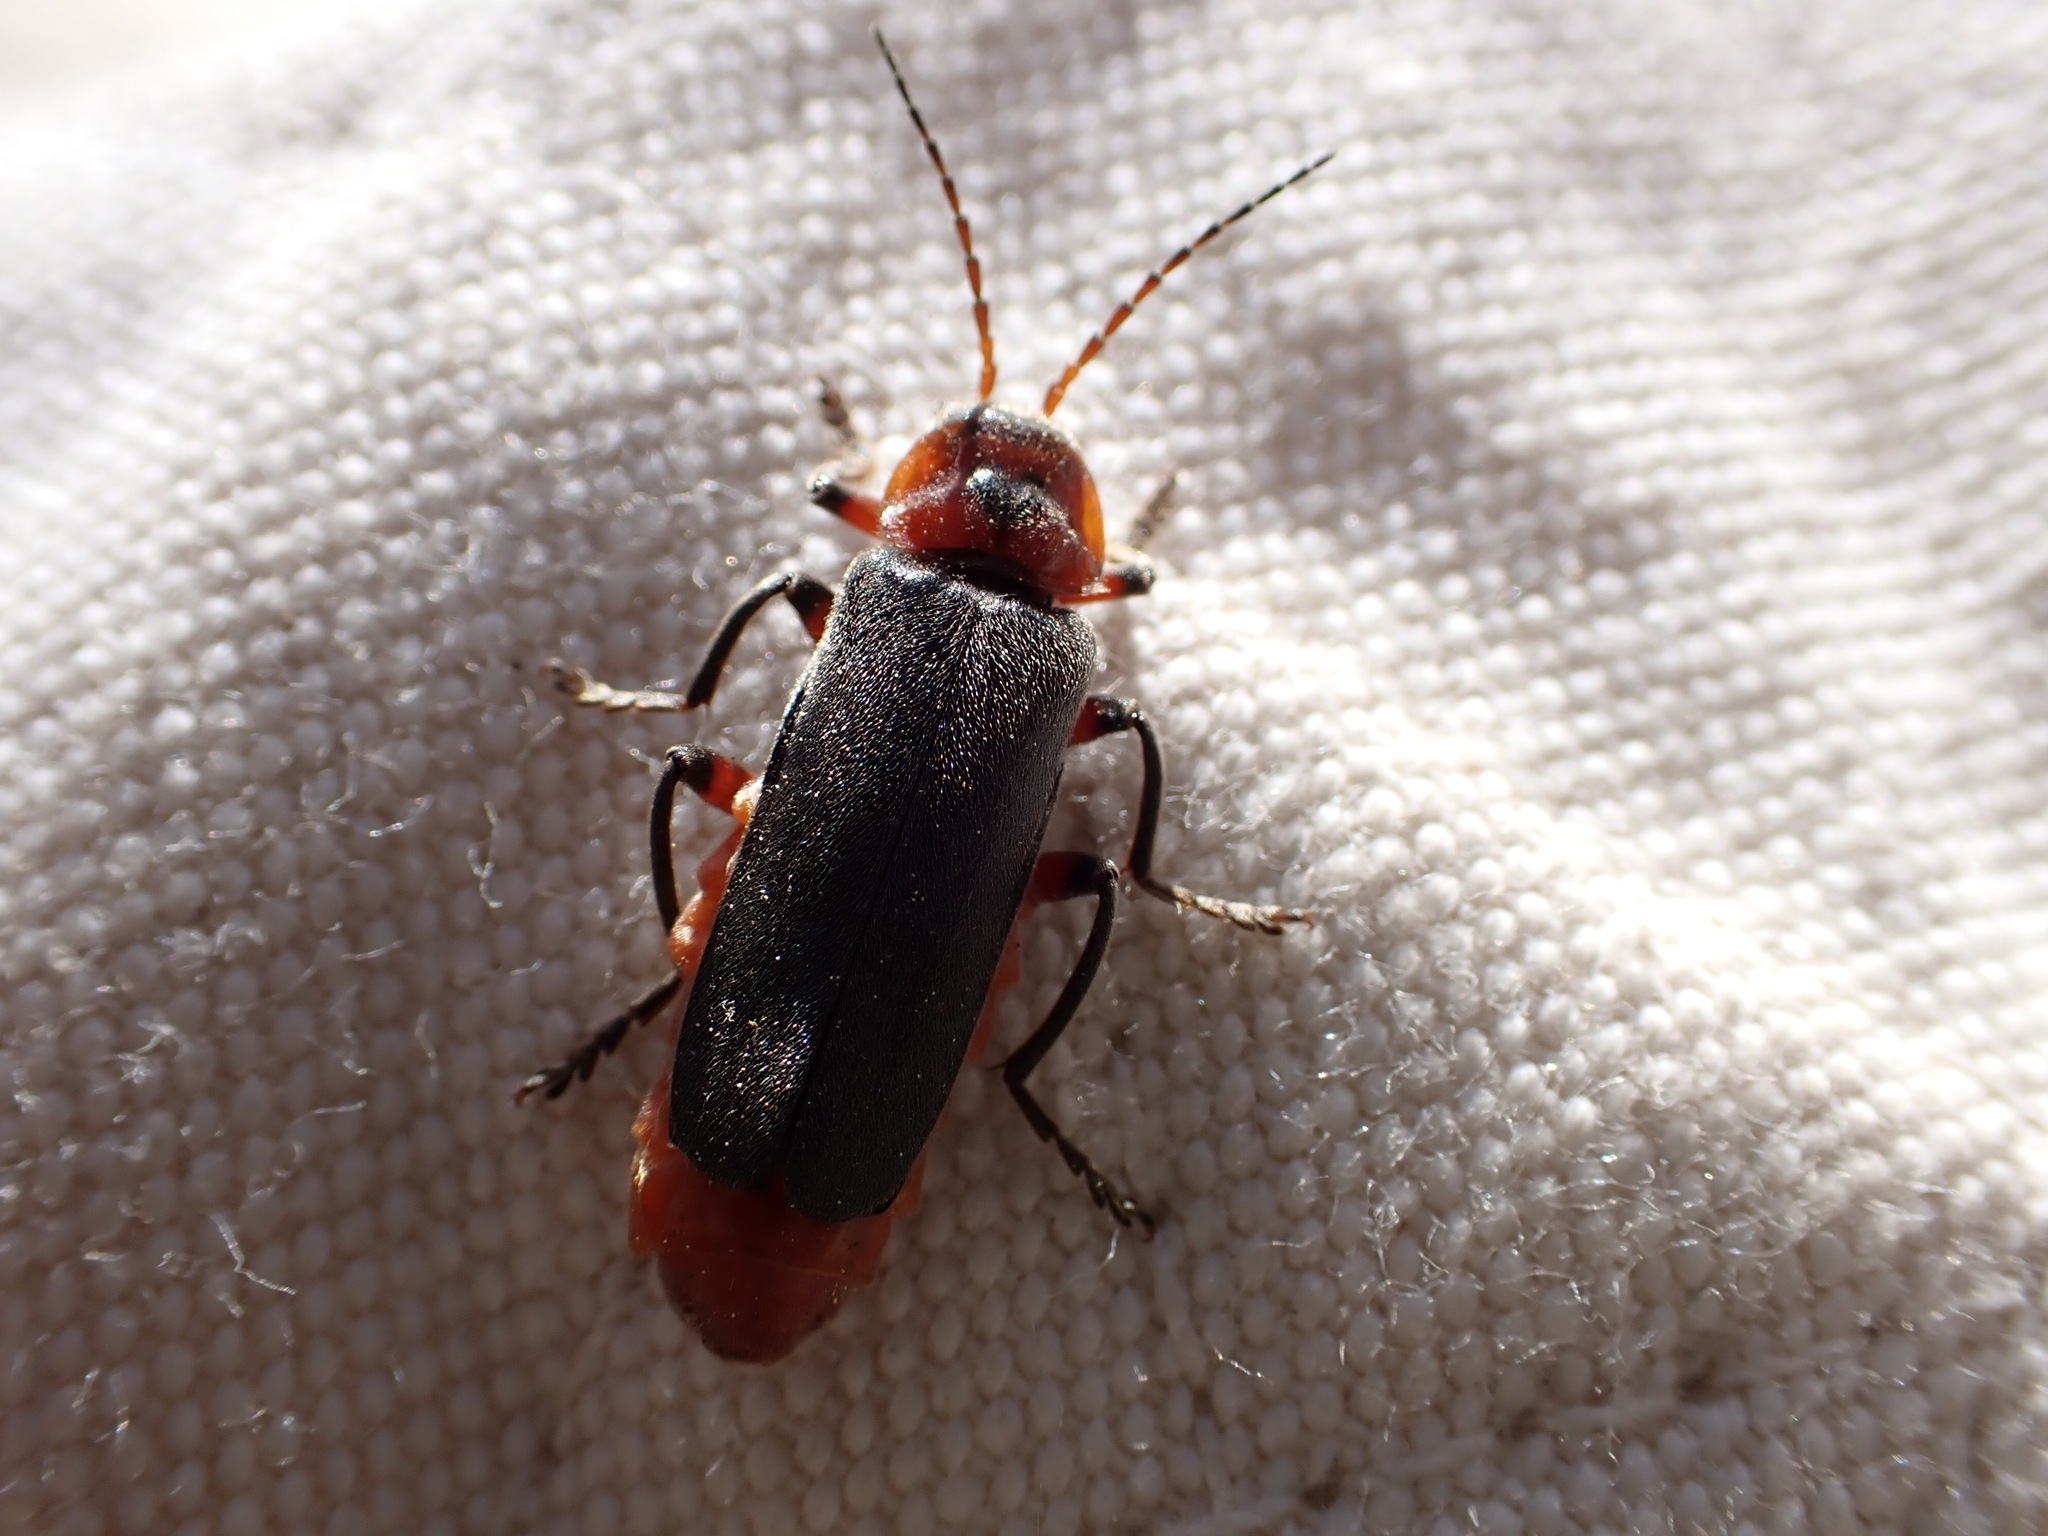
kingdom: Animalia
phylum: Arthropoda
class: Insecta
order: Coleoptera
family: Cantharidae
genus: Cantharis
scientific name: Cantharis rustica
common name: Soldier beetle
